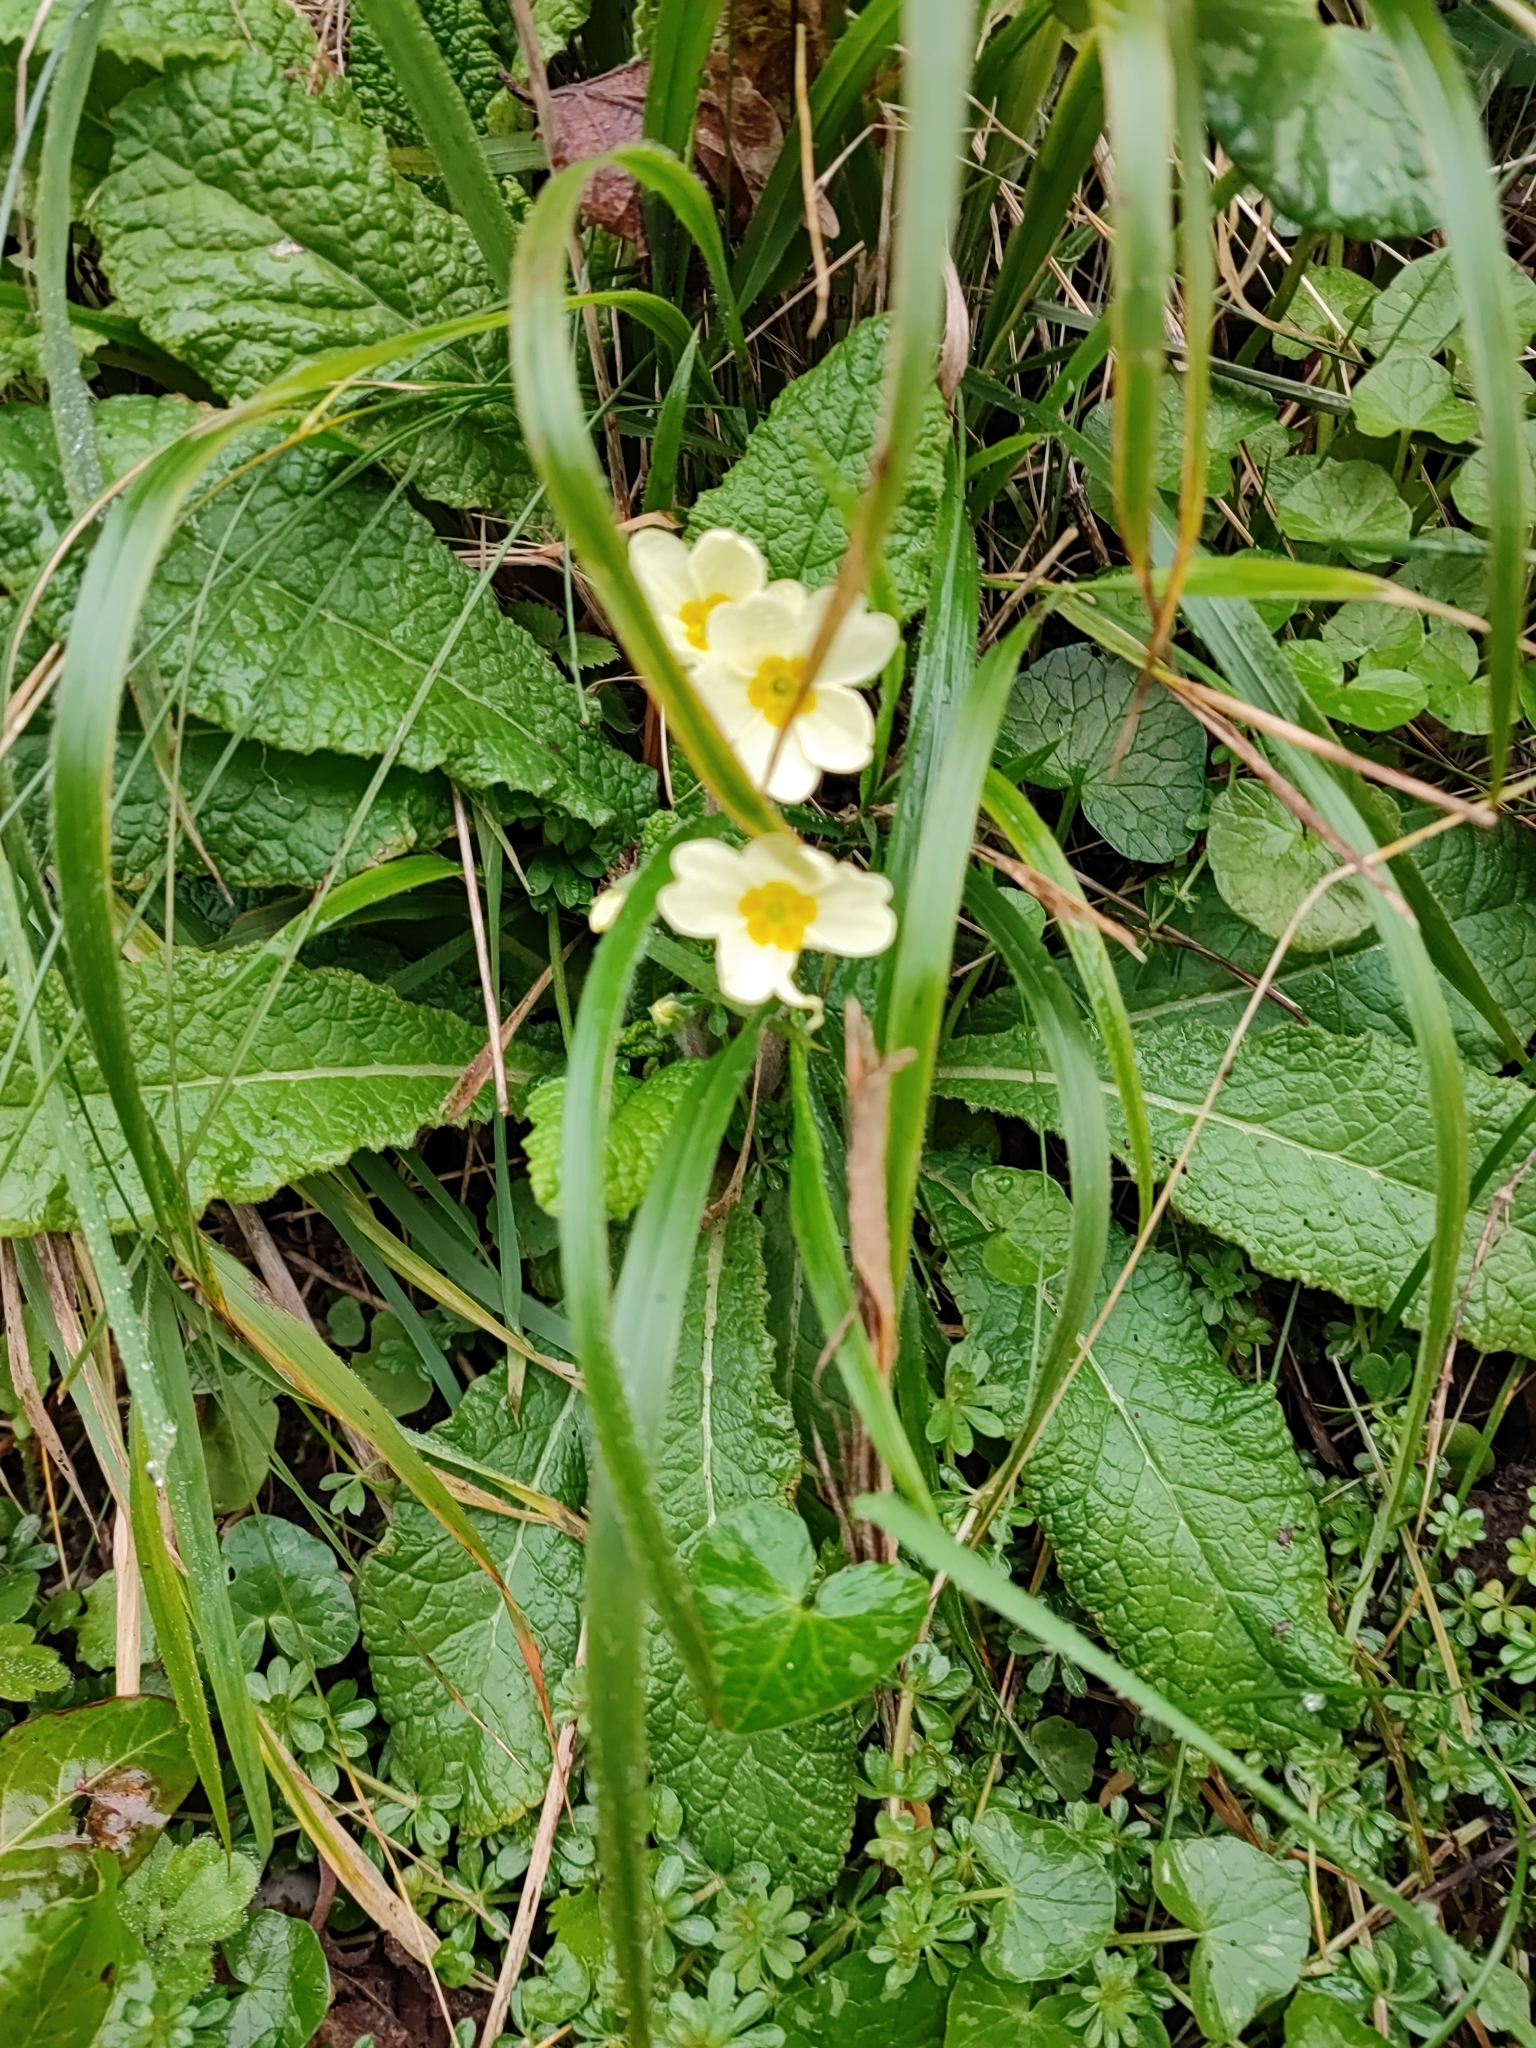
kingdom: Plantae
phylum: Tracheophyta
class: Magnoliopsida
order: Ericales
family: Primulaceae
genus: Primula
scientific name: Primula vulgaris
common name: Primrose
